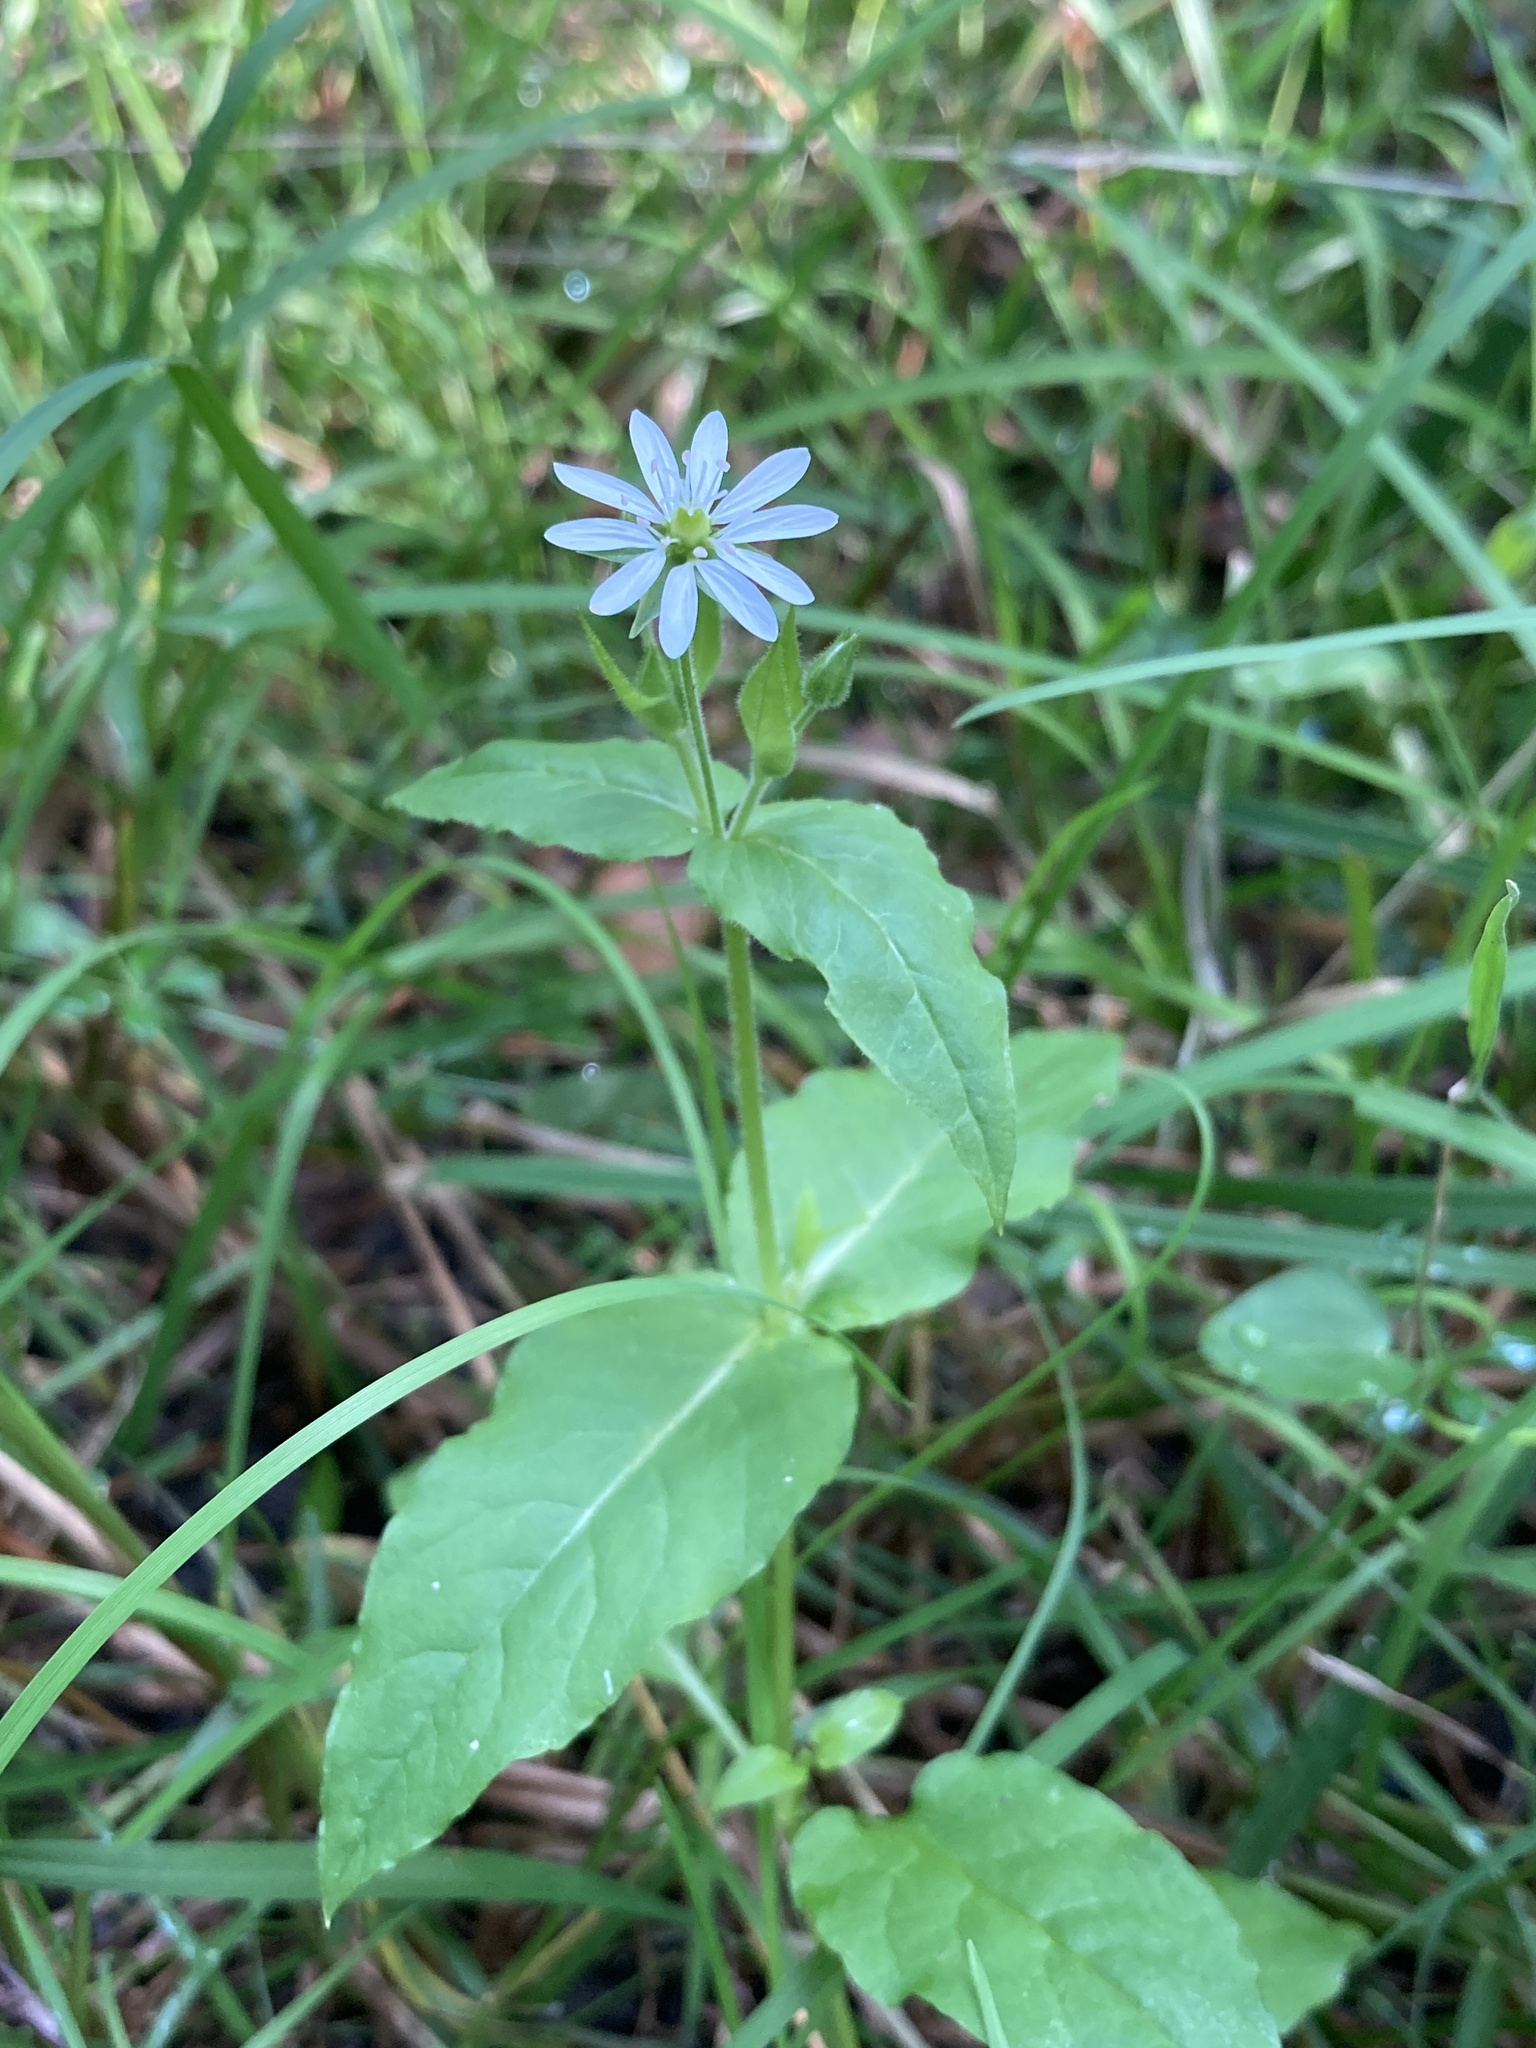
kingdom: Plantae
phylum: Tracheophyta
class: Magnoliopsida
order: Caryophyllales
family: Caryophyllaceae
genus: Stellaria
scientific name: Stellaria aquatica
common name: Water chickweed
